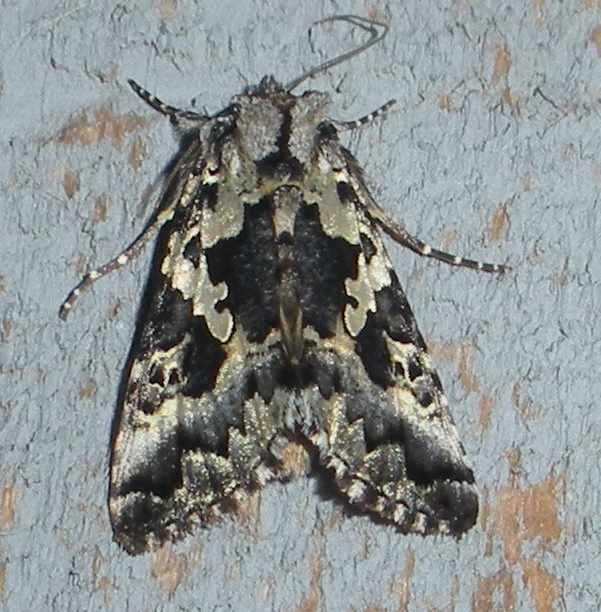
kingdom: Animalia
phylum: Arthropoda
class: Insecta
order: Lepidoptera
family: Noctuidae
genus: Syngrapha
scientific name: Syngrapha rectangula
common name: Angulated cutworm
